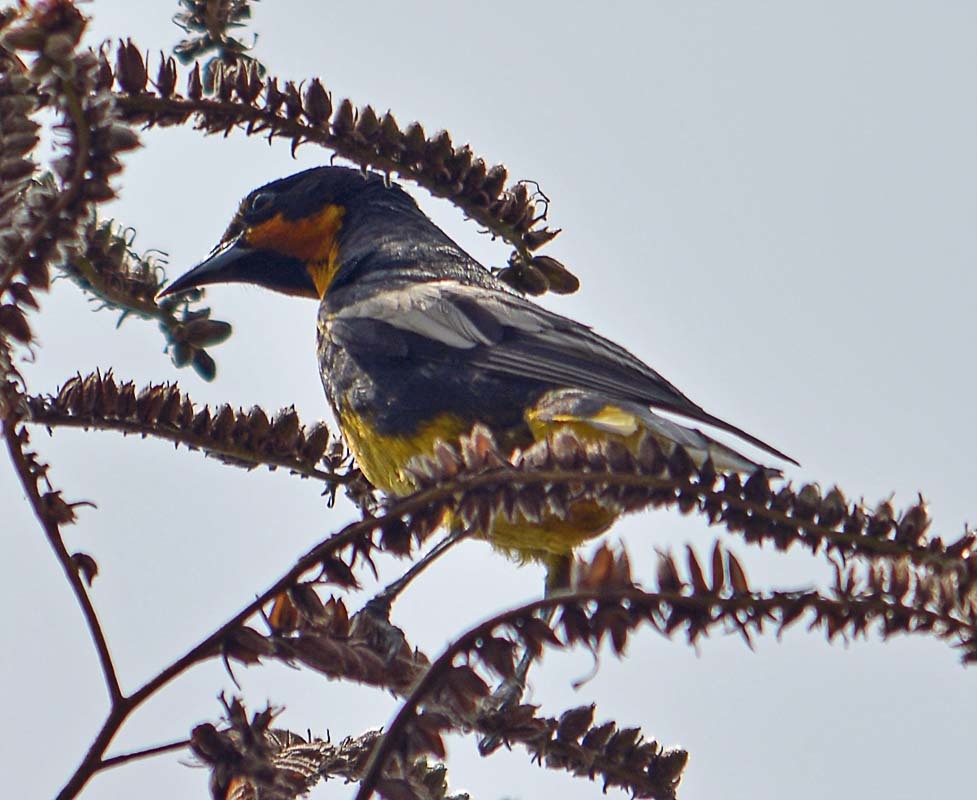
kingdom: Animalia
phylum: Chordata
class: Aves
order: Passeriformes
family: Icteridae
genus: Icterus
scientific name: Icterus abeillei
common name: Black-backed oriole
